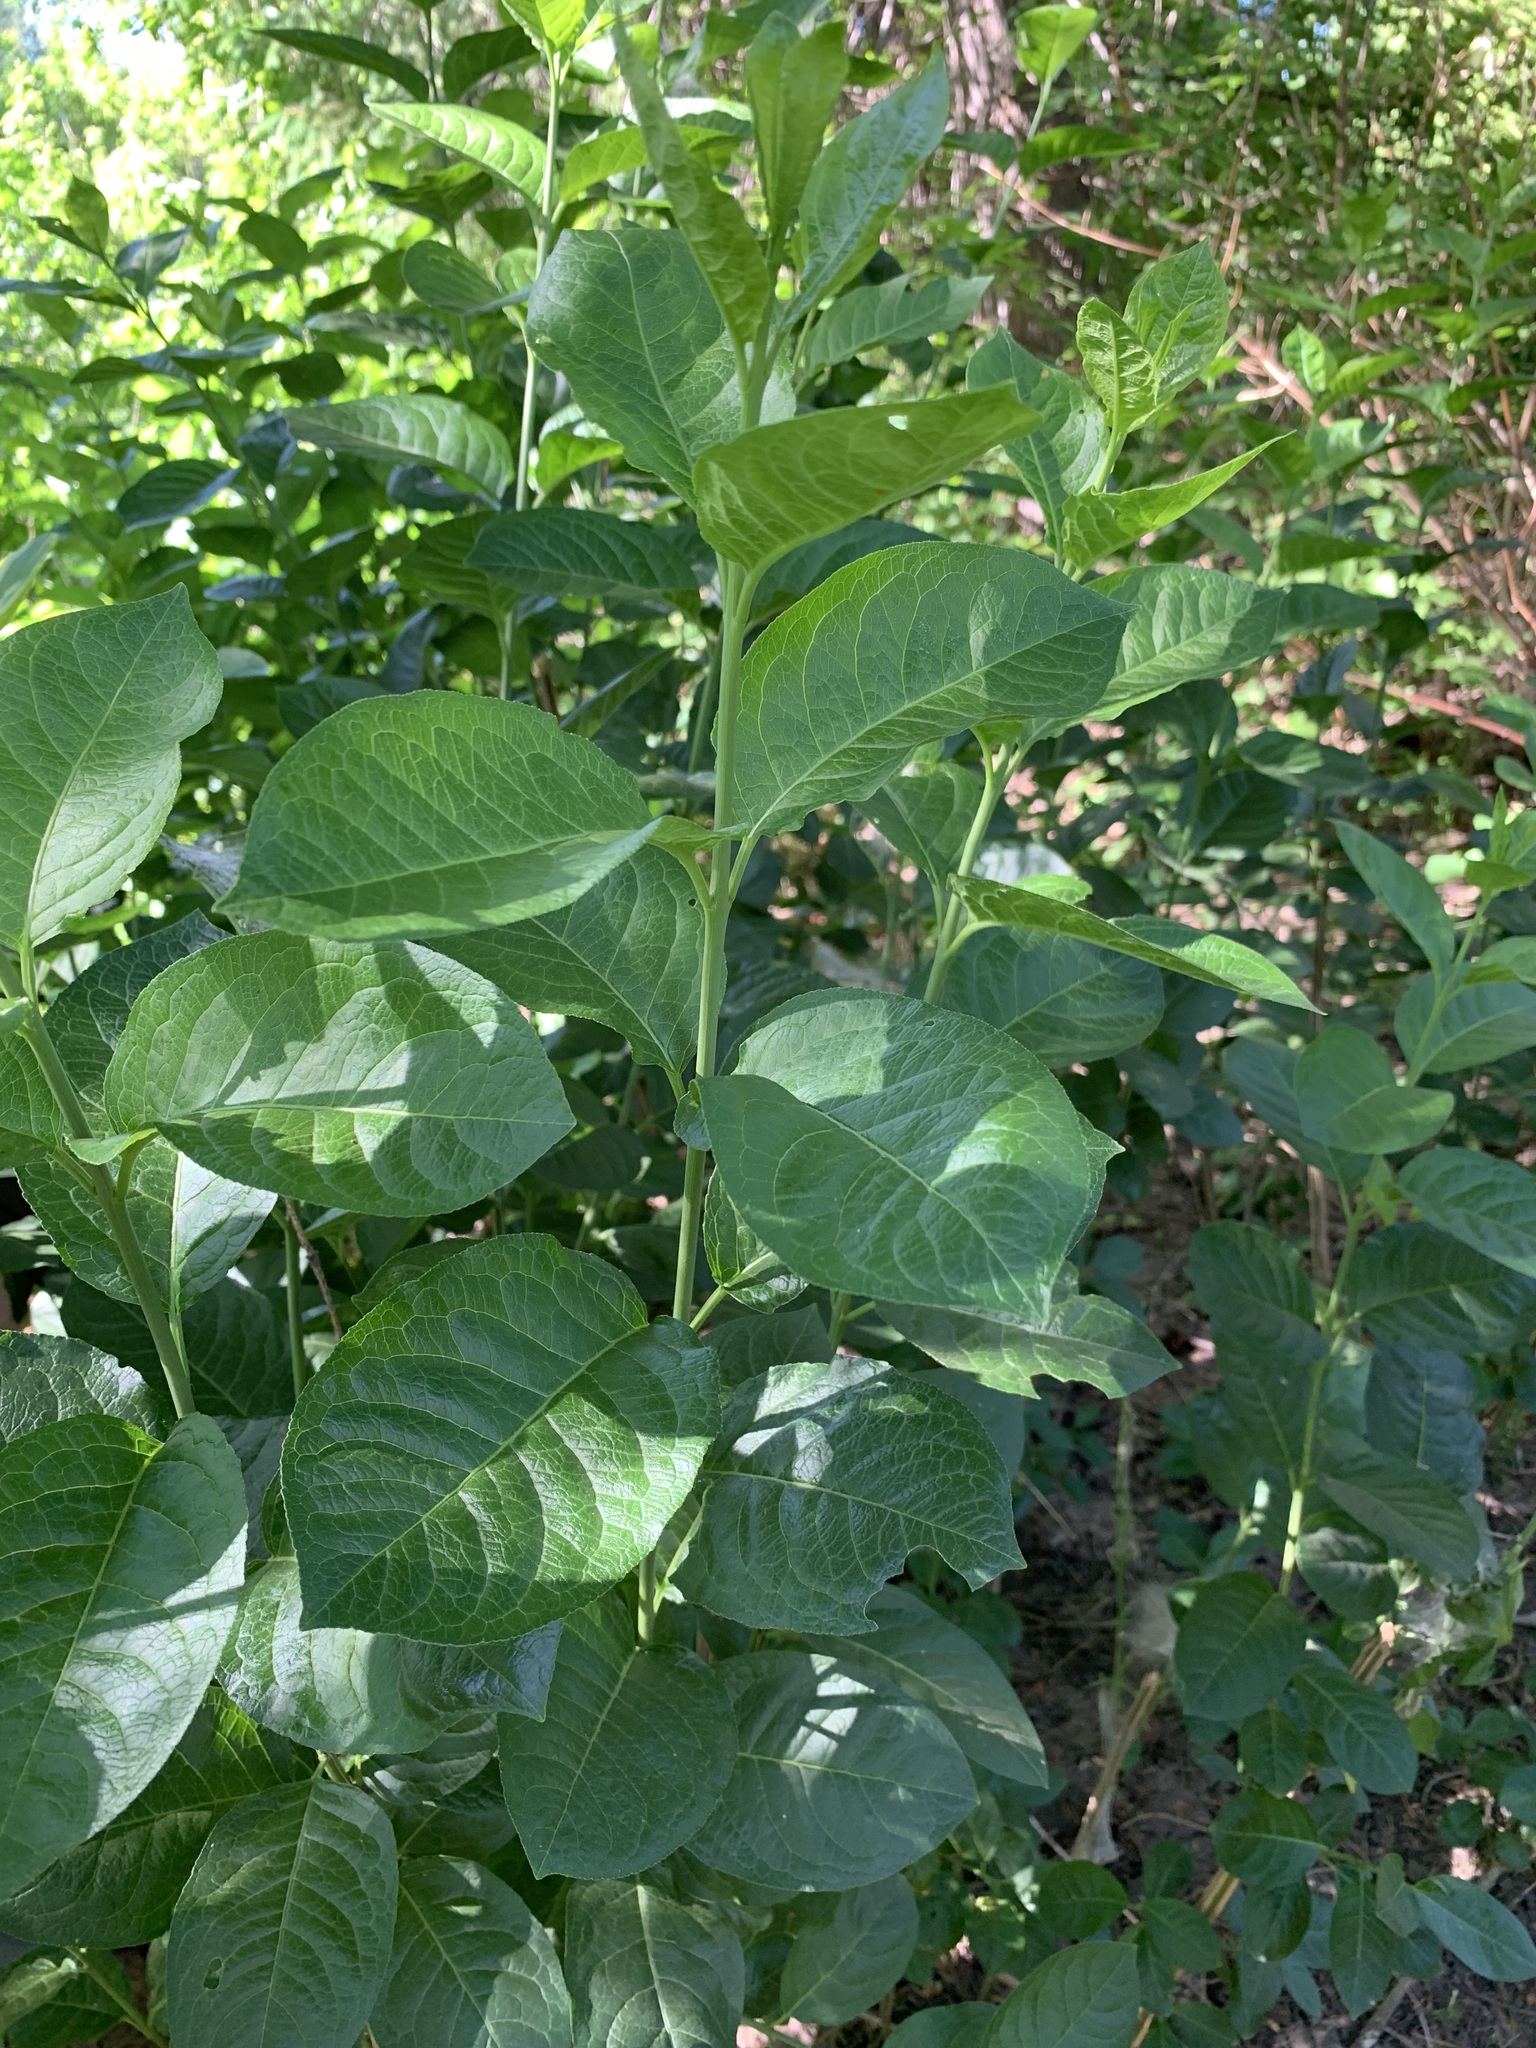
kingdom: Plantae
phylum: Tracheophyta
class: Magnoliopsida
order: Celastrales
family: Celastraceae
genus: Euonymus
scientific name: Euonymus europaeus
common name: Spindle
